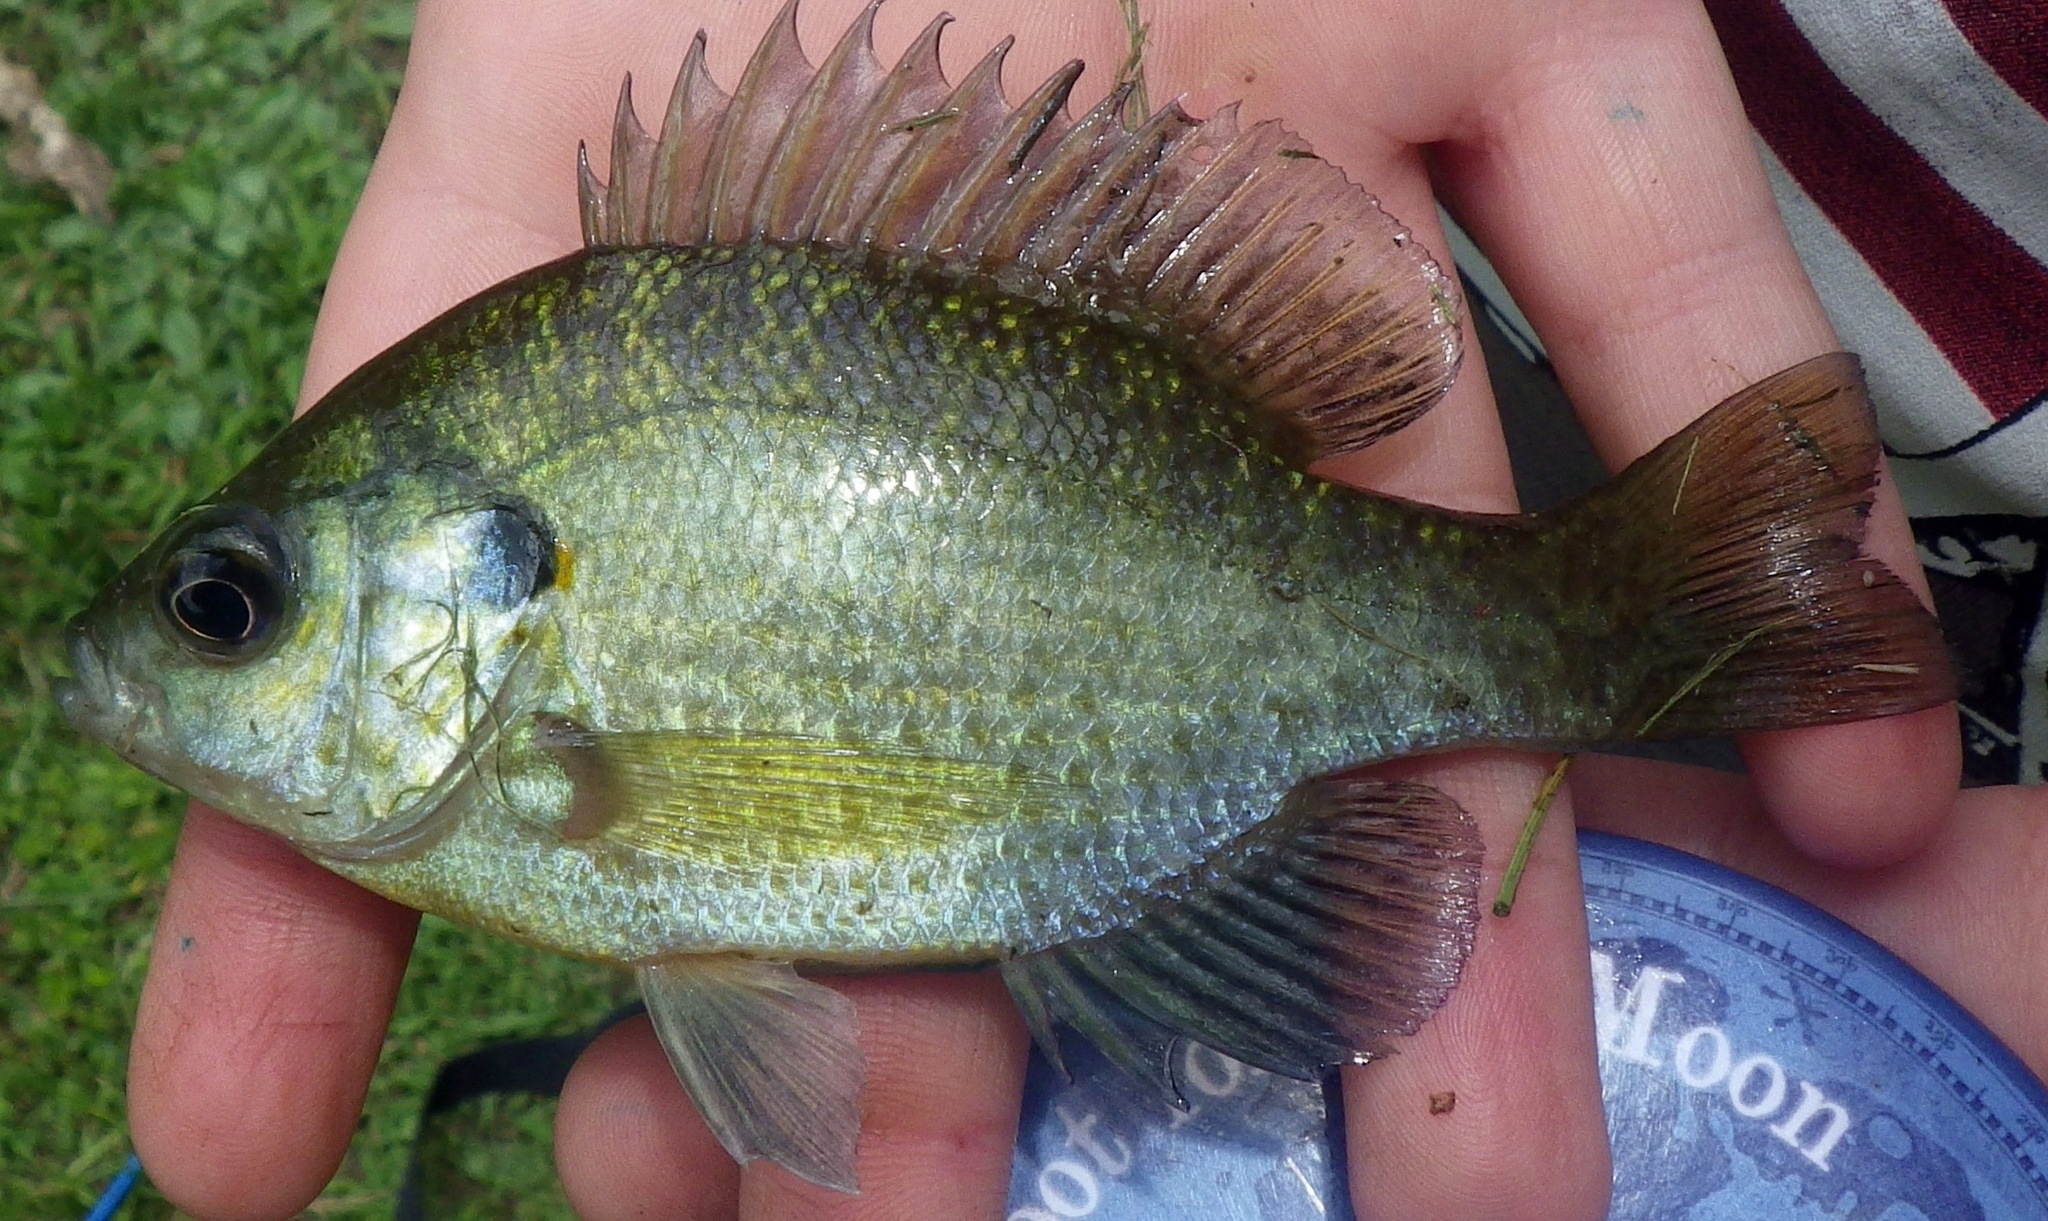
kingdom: Animalia
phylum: Chordata
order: Perciformes
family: Centrarchidae
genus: Lepomis
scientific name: Lepomis
